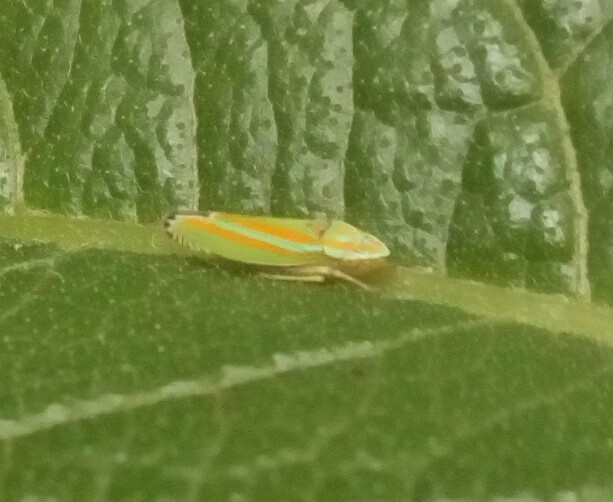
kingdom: Animalia
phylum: Arthropoda
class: Insecta
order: Hemiptera
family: Cicadellidae
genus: Graphocephala
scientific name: Graphocephala versuta
